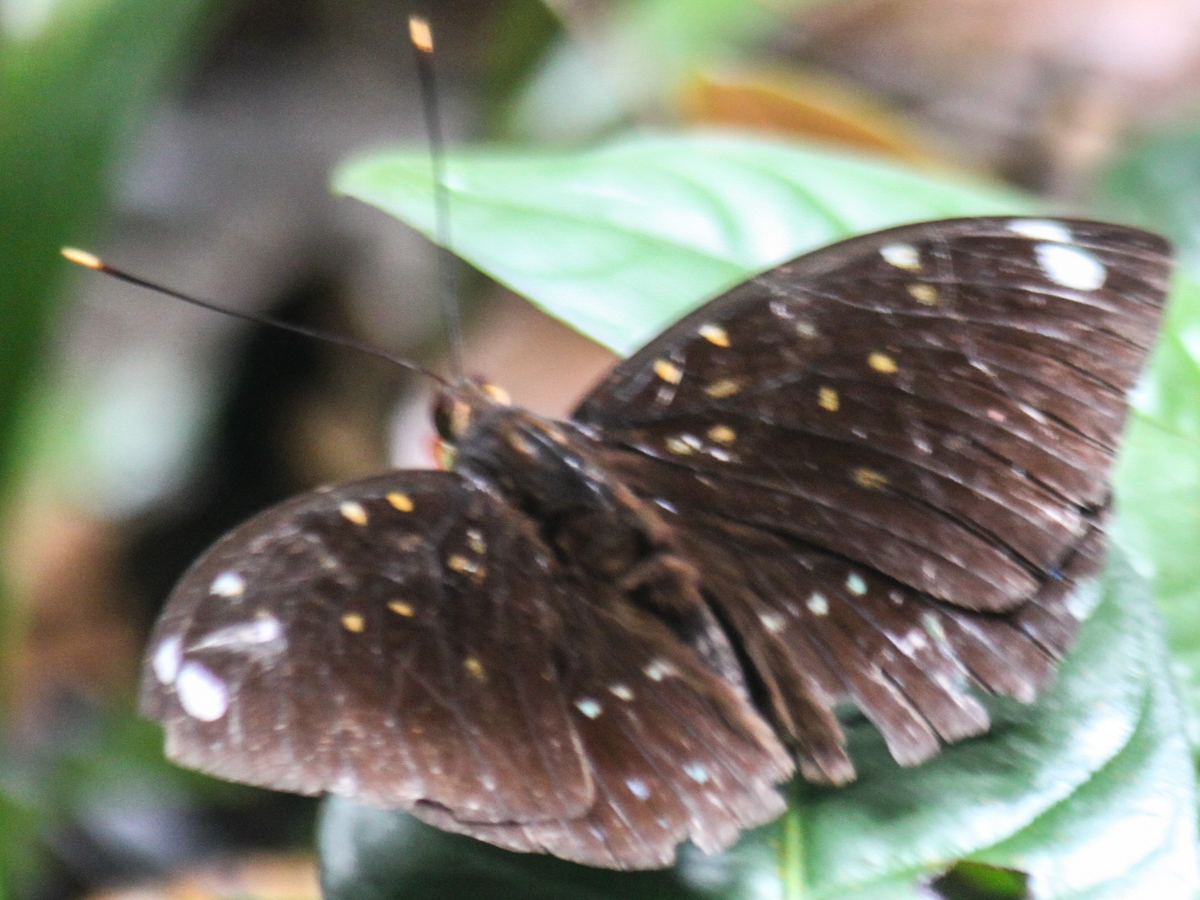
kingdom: Animalia
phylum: Arthropoda
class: Insecta
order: Lepidoptera
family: Nymphalidae
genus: Lexias
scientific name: Lexias
